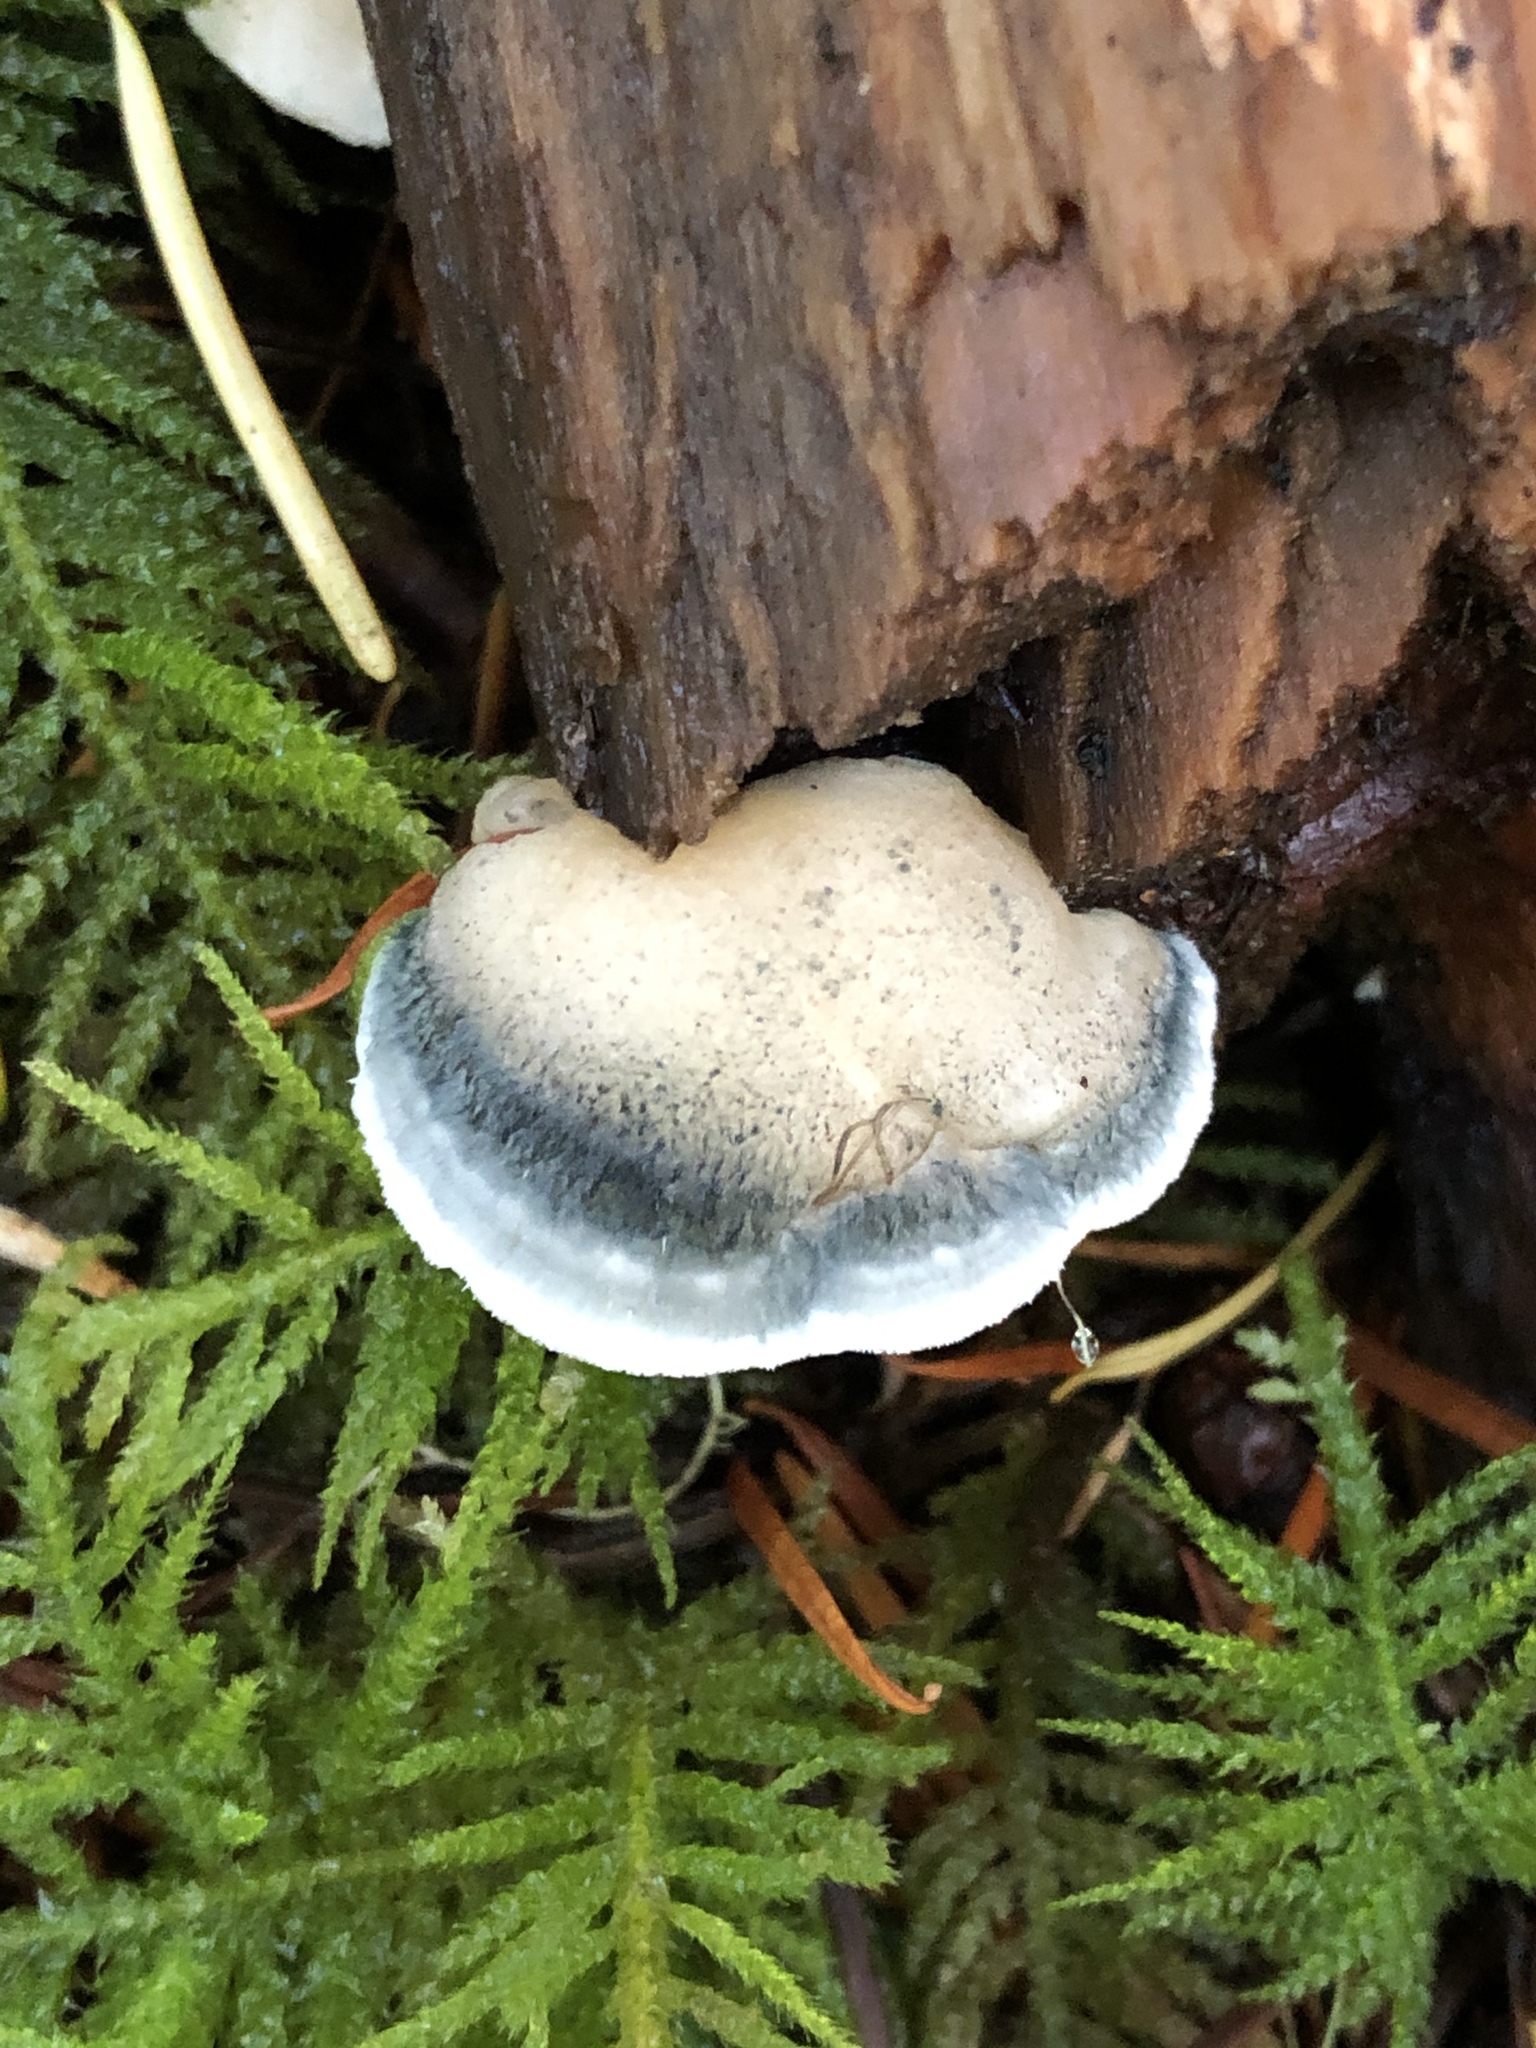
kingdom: Fungi
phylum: Basidiomycota
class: Agaricomycetes
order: Polyporales
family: Polyporaceae
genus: Cyanosporus
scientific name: Cyanosporus caesius
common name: Blue cheese polypore
